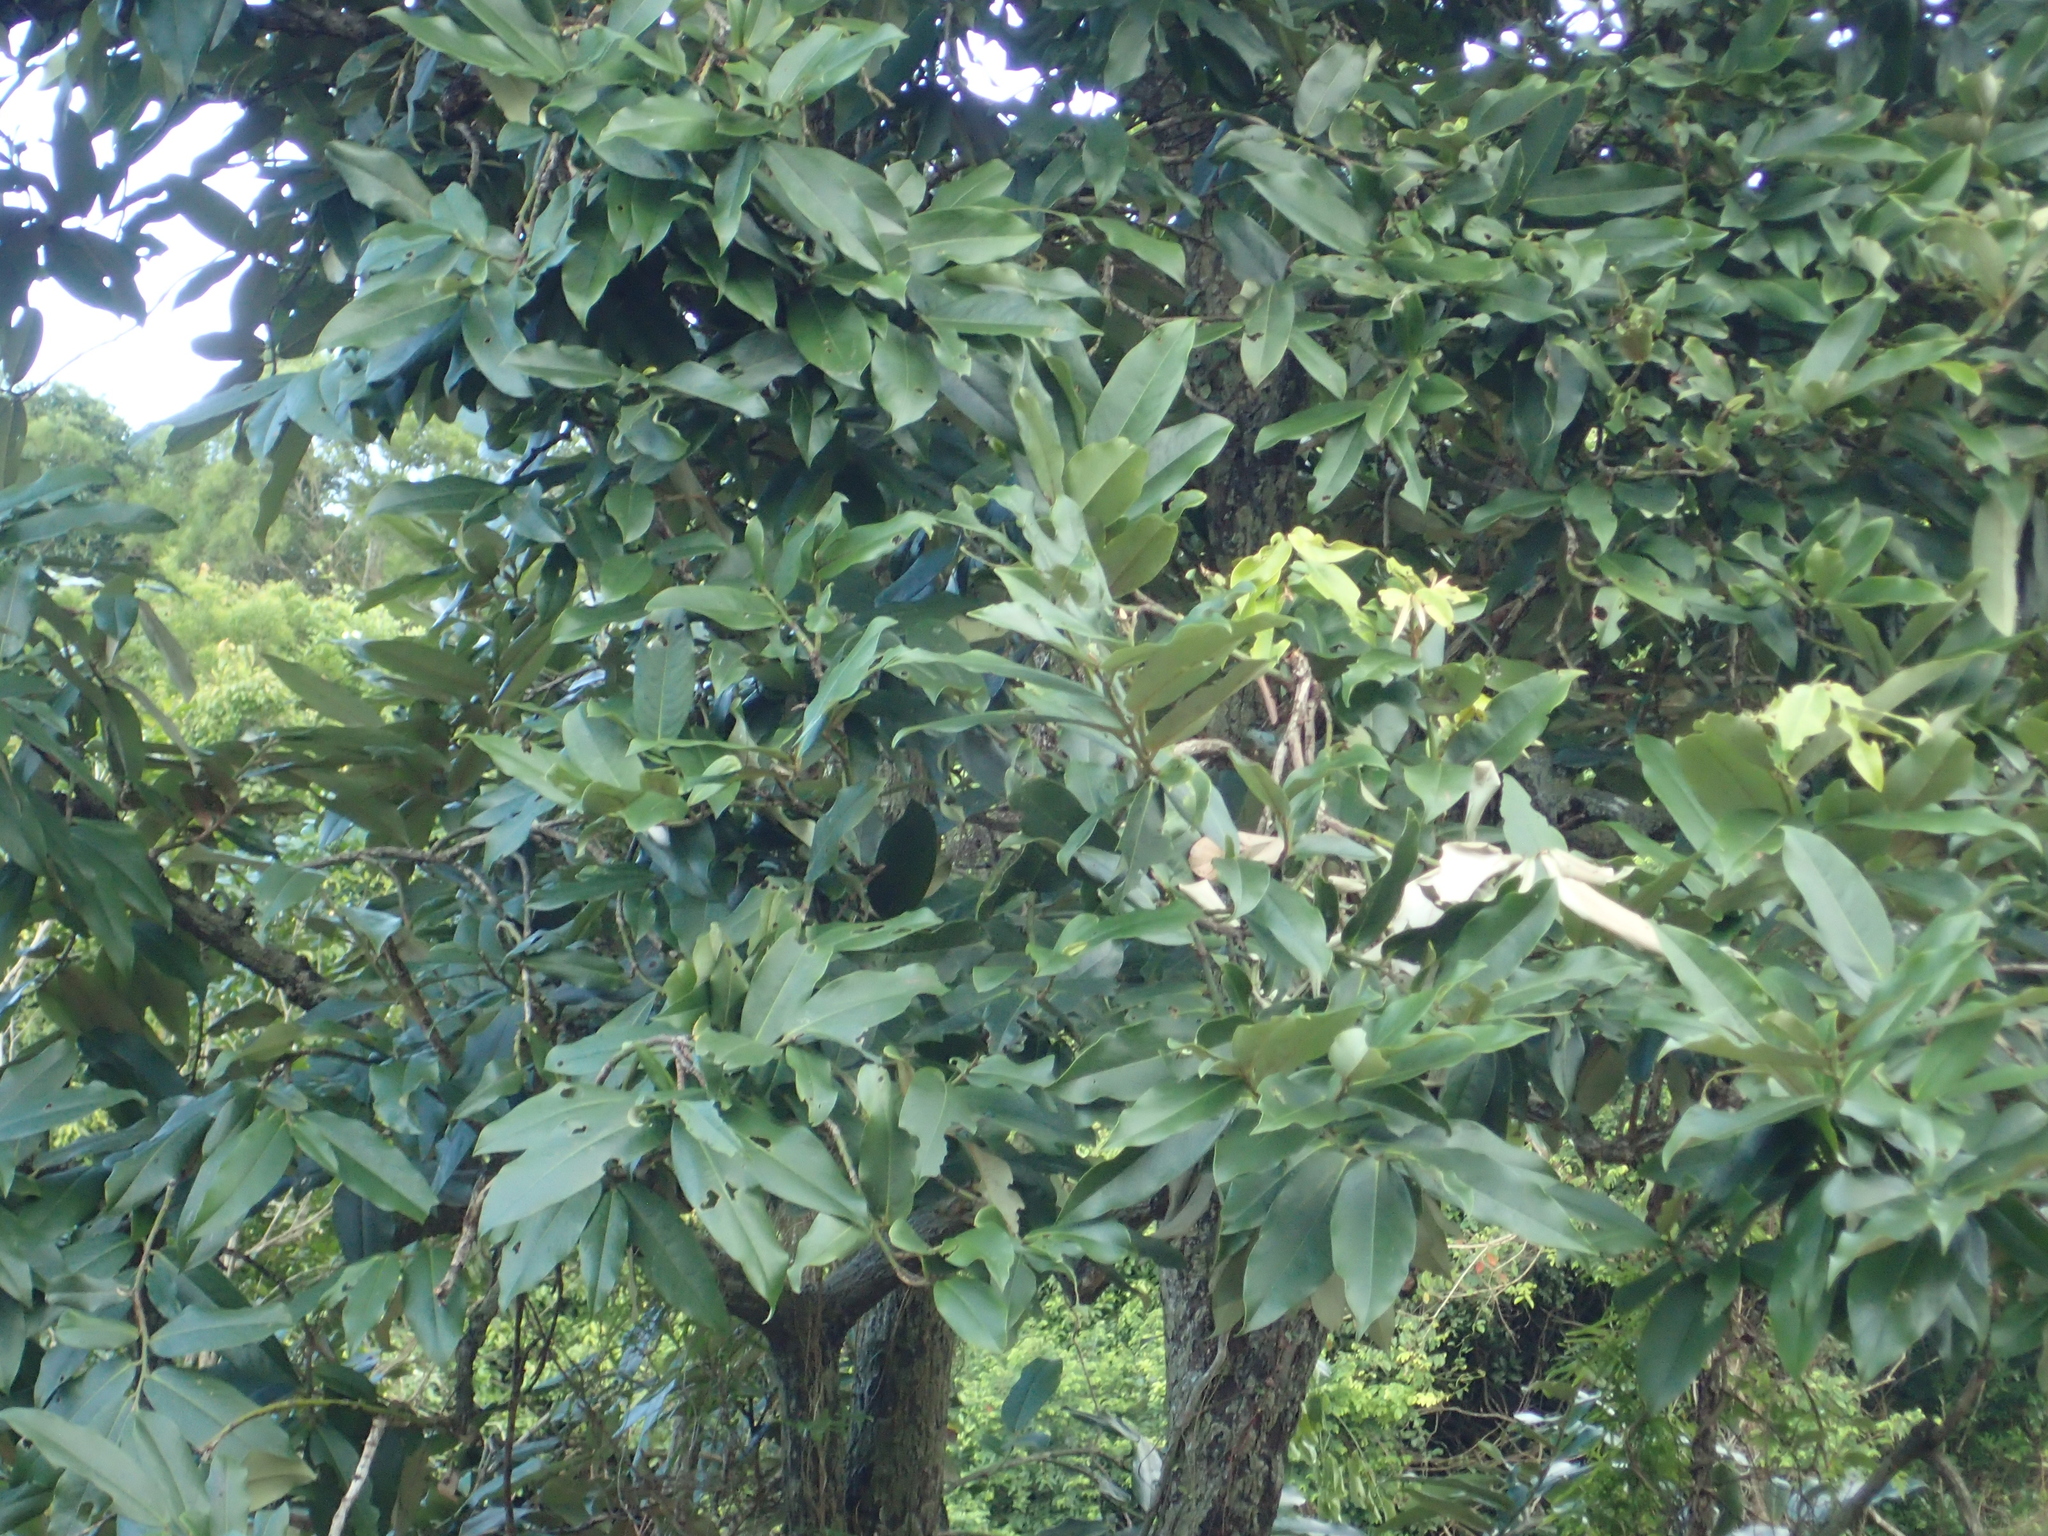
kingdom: Plantae
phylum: Tracheophyta
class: Magnoliopsida
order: Ericales
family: Ebenaceae
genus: Diospyros
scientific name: Diospyros blancoi
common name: Mabola-tree
